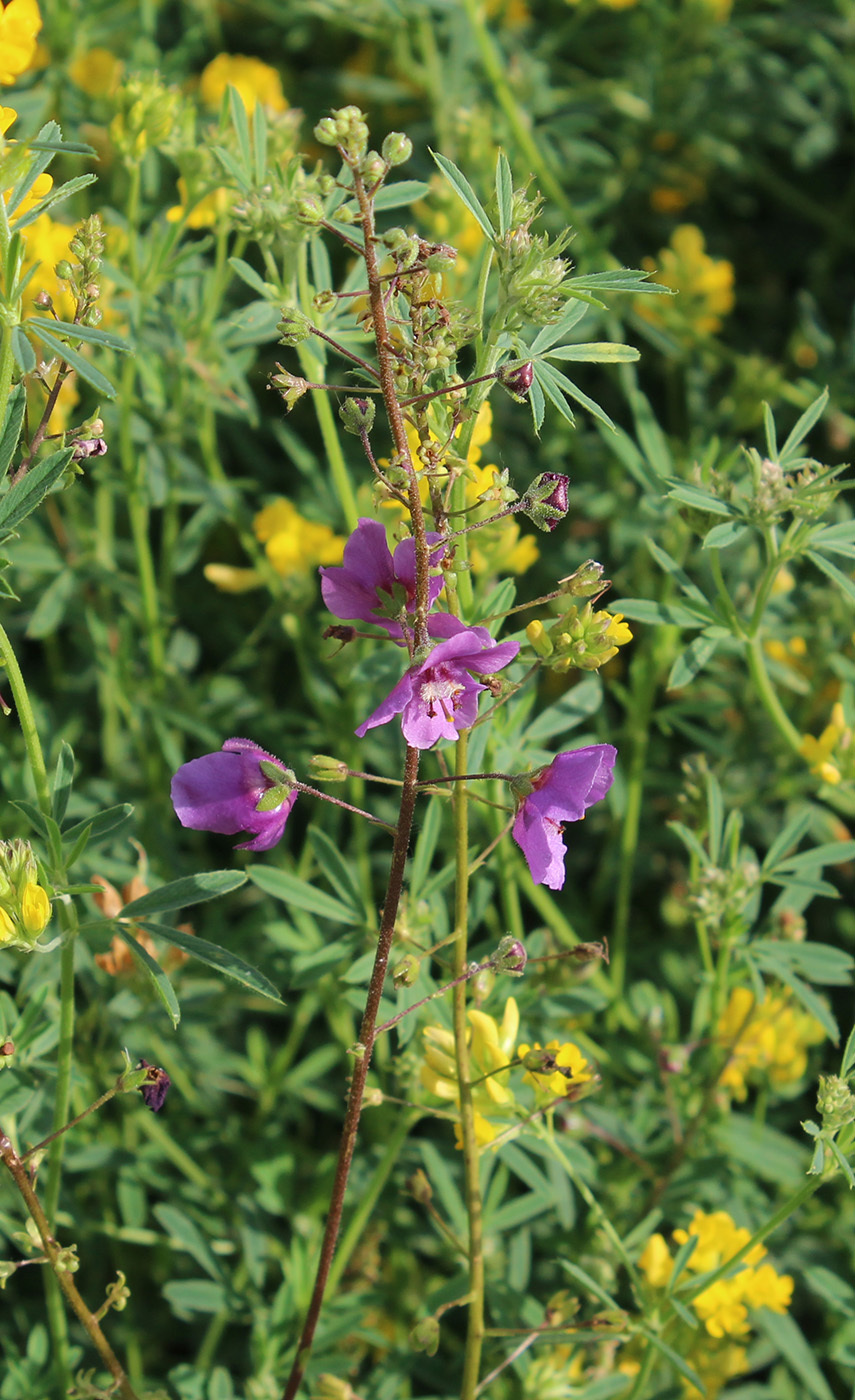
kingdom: Plantae
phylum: Tracheophyta
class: Magnoliopsida
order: Lamiales
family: Scrophulariaceae
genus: Verbascum
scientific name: Verbascum phoeniceum
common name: Purple mullein
